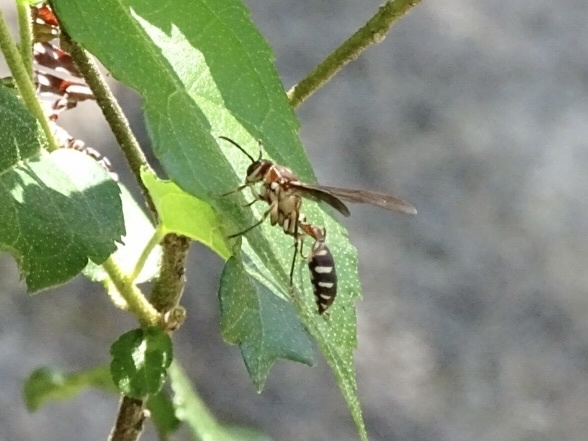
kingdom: Animalia
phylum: Arthropoda
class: Insecta
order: Hymenoptera
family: Vespidae
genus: Parapolybia
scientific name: Parapolybia nodosa
